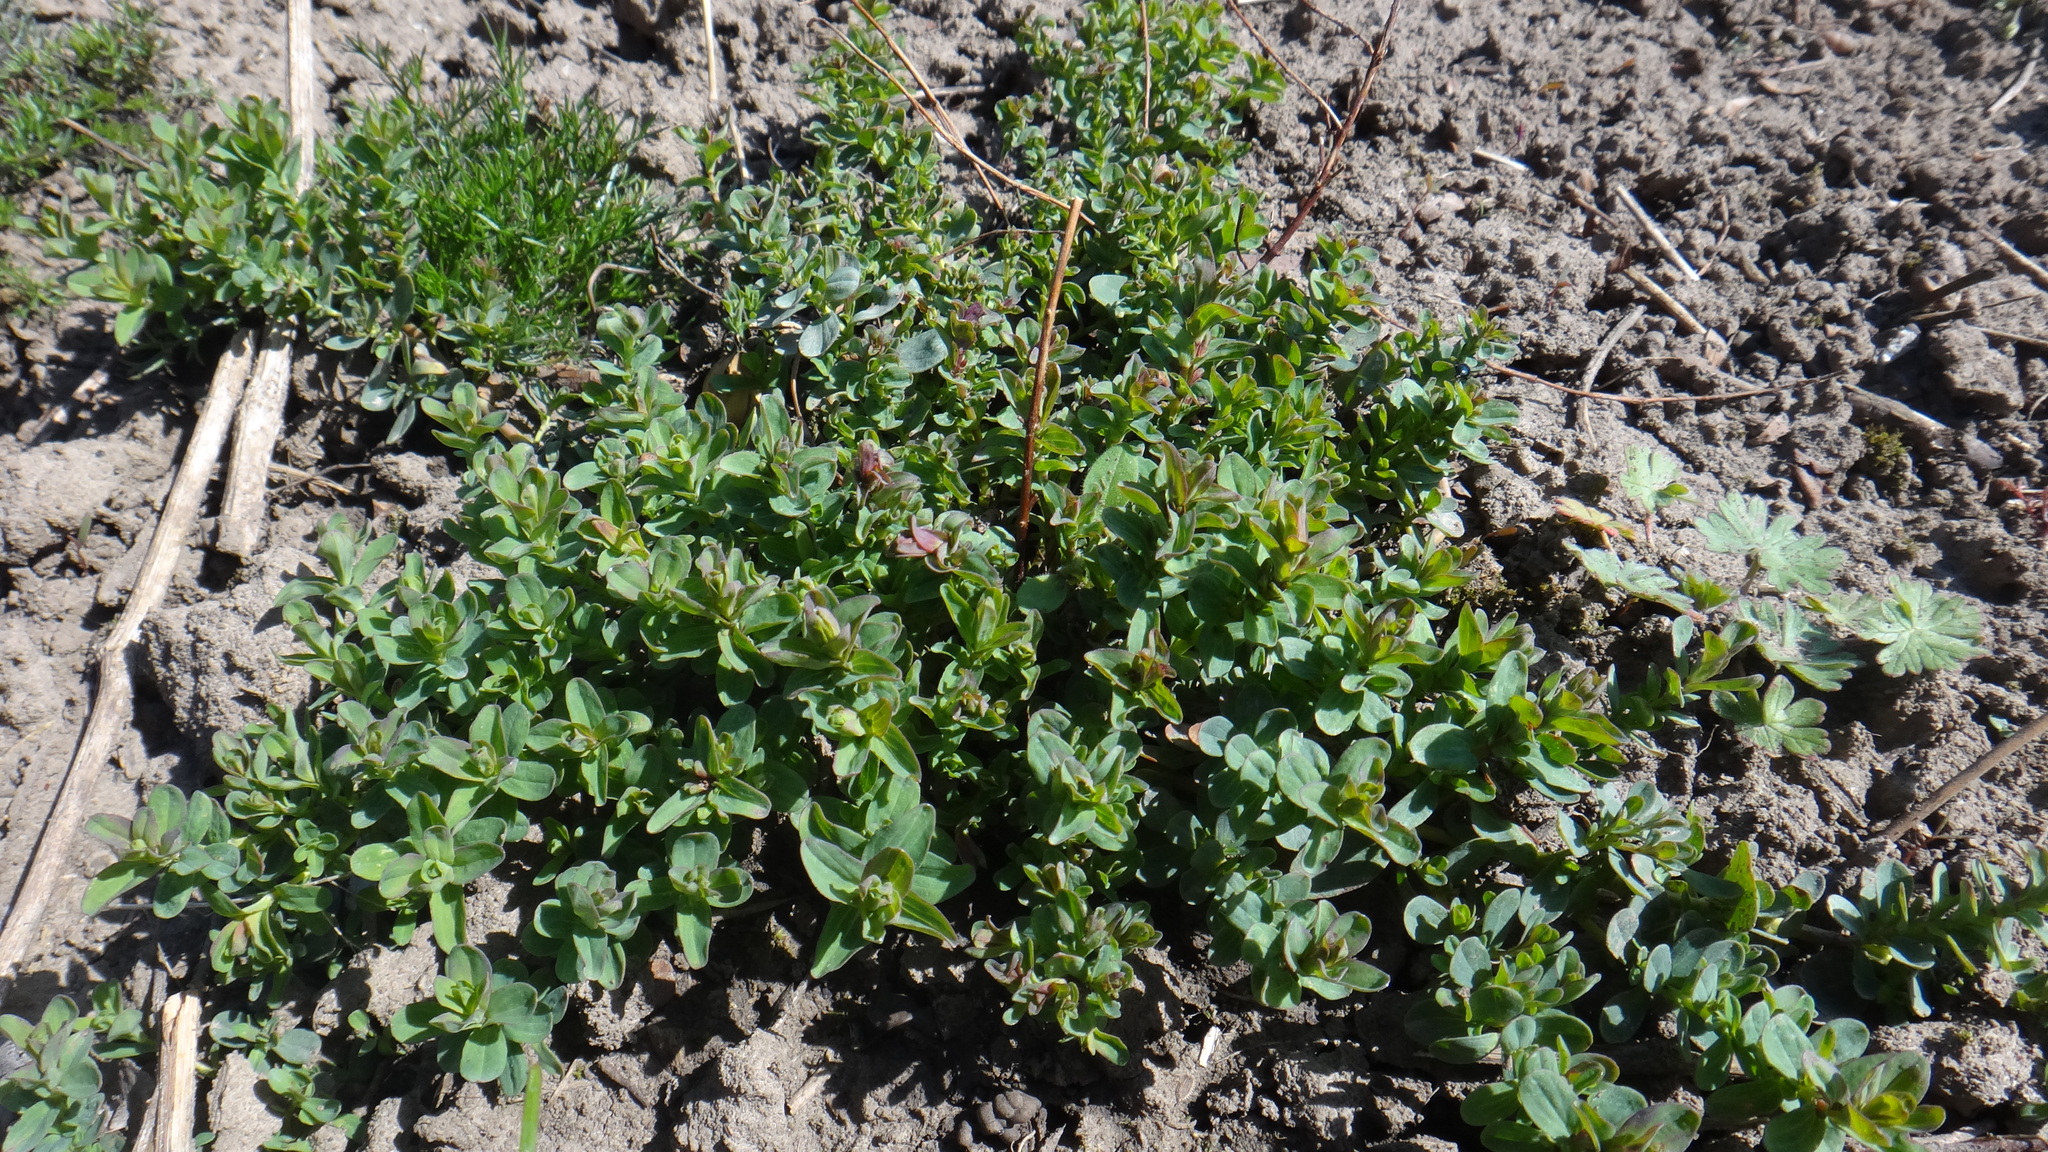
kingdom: Plantae
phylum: Tracheophyta
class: Magnoliopsida
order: Malpighiales
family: Hypericaceae
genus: Hypericum
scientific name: Hypericum perforatum
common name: Common st. johnswort
